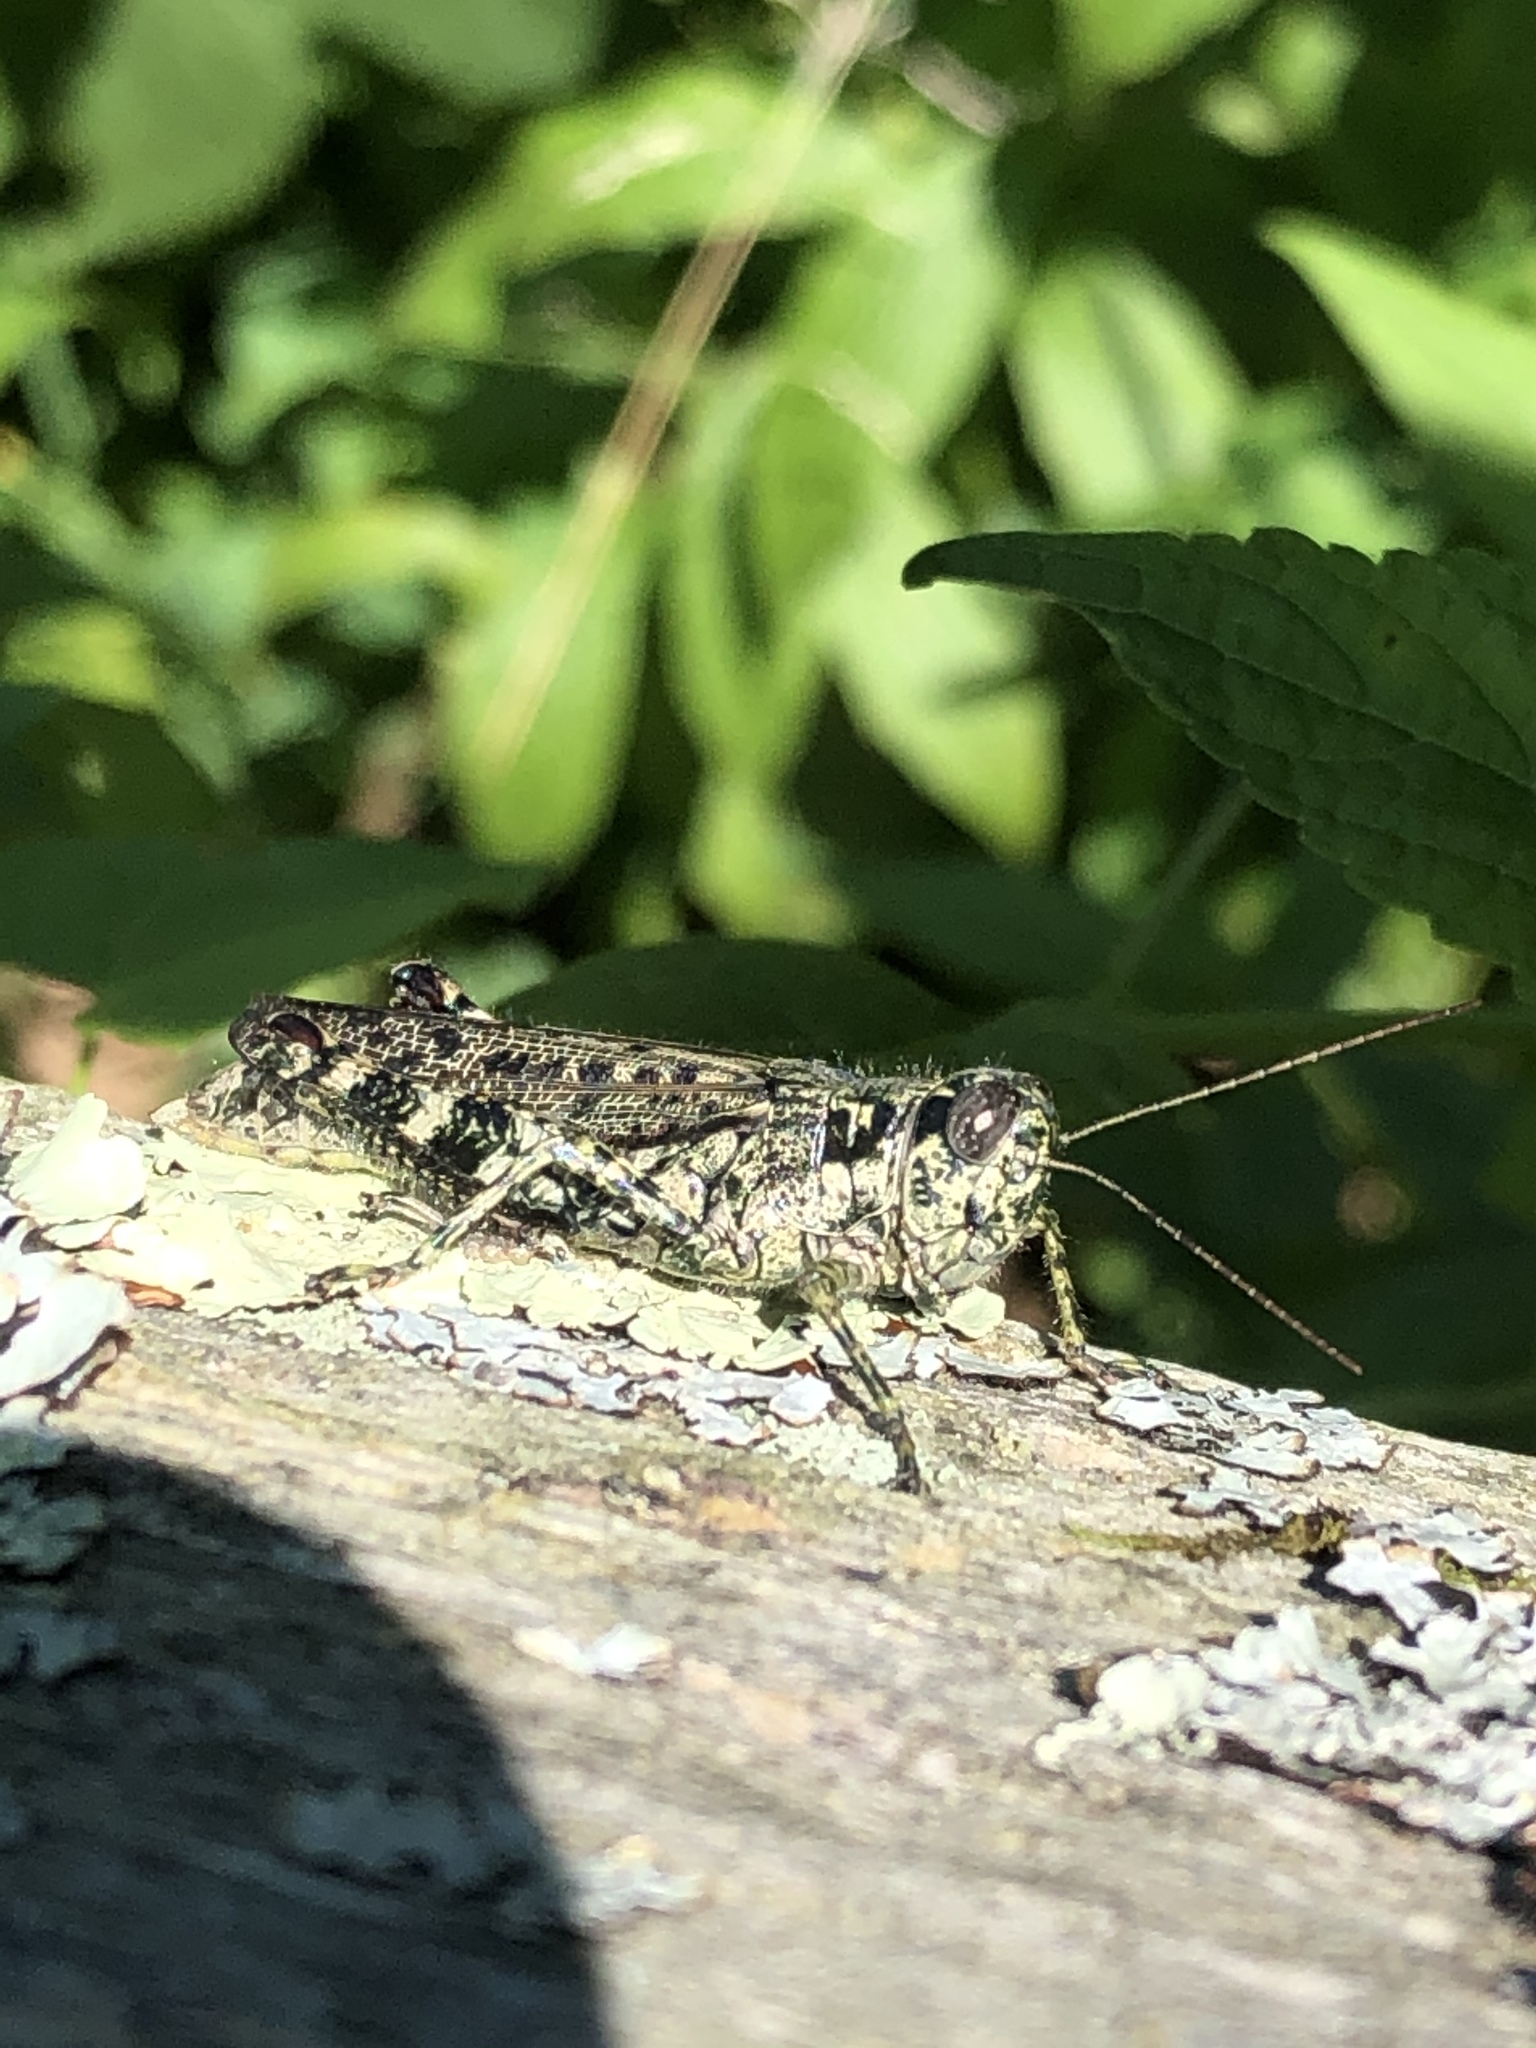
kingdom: Animalia
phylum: Arthropoda
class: Insecta
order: Orthoptera
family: Acrididae
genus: Melanoplus
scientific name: Melanoplus punctulatus
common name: Pine-tree spur-throat grasshopper
